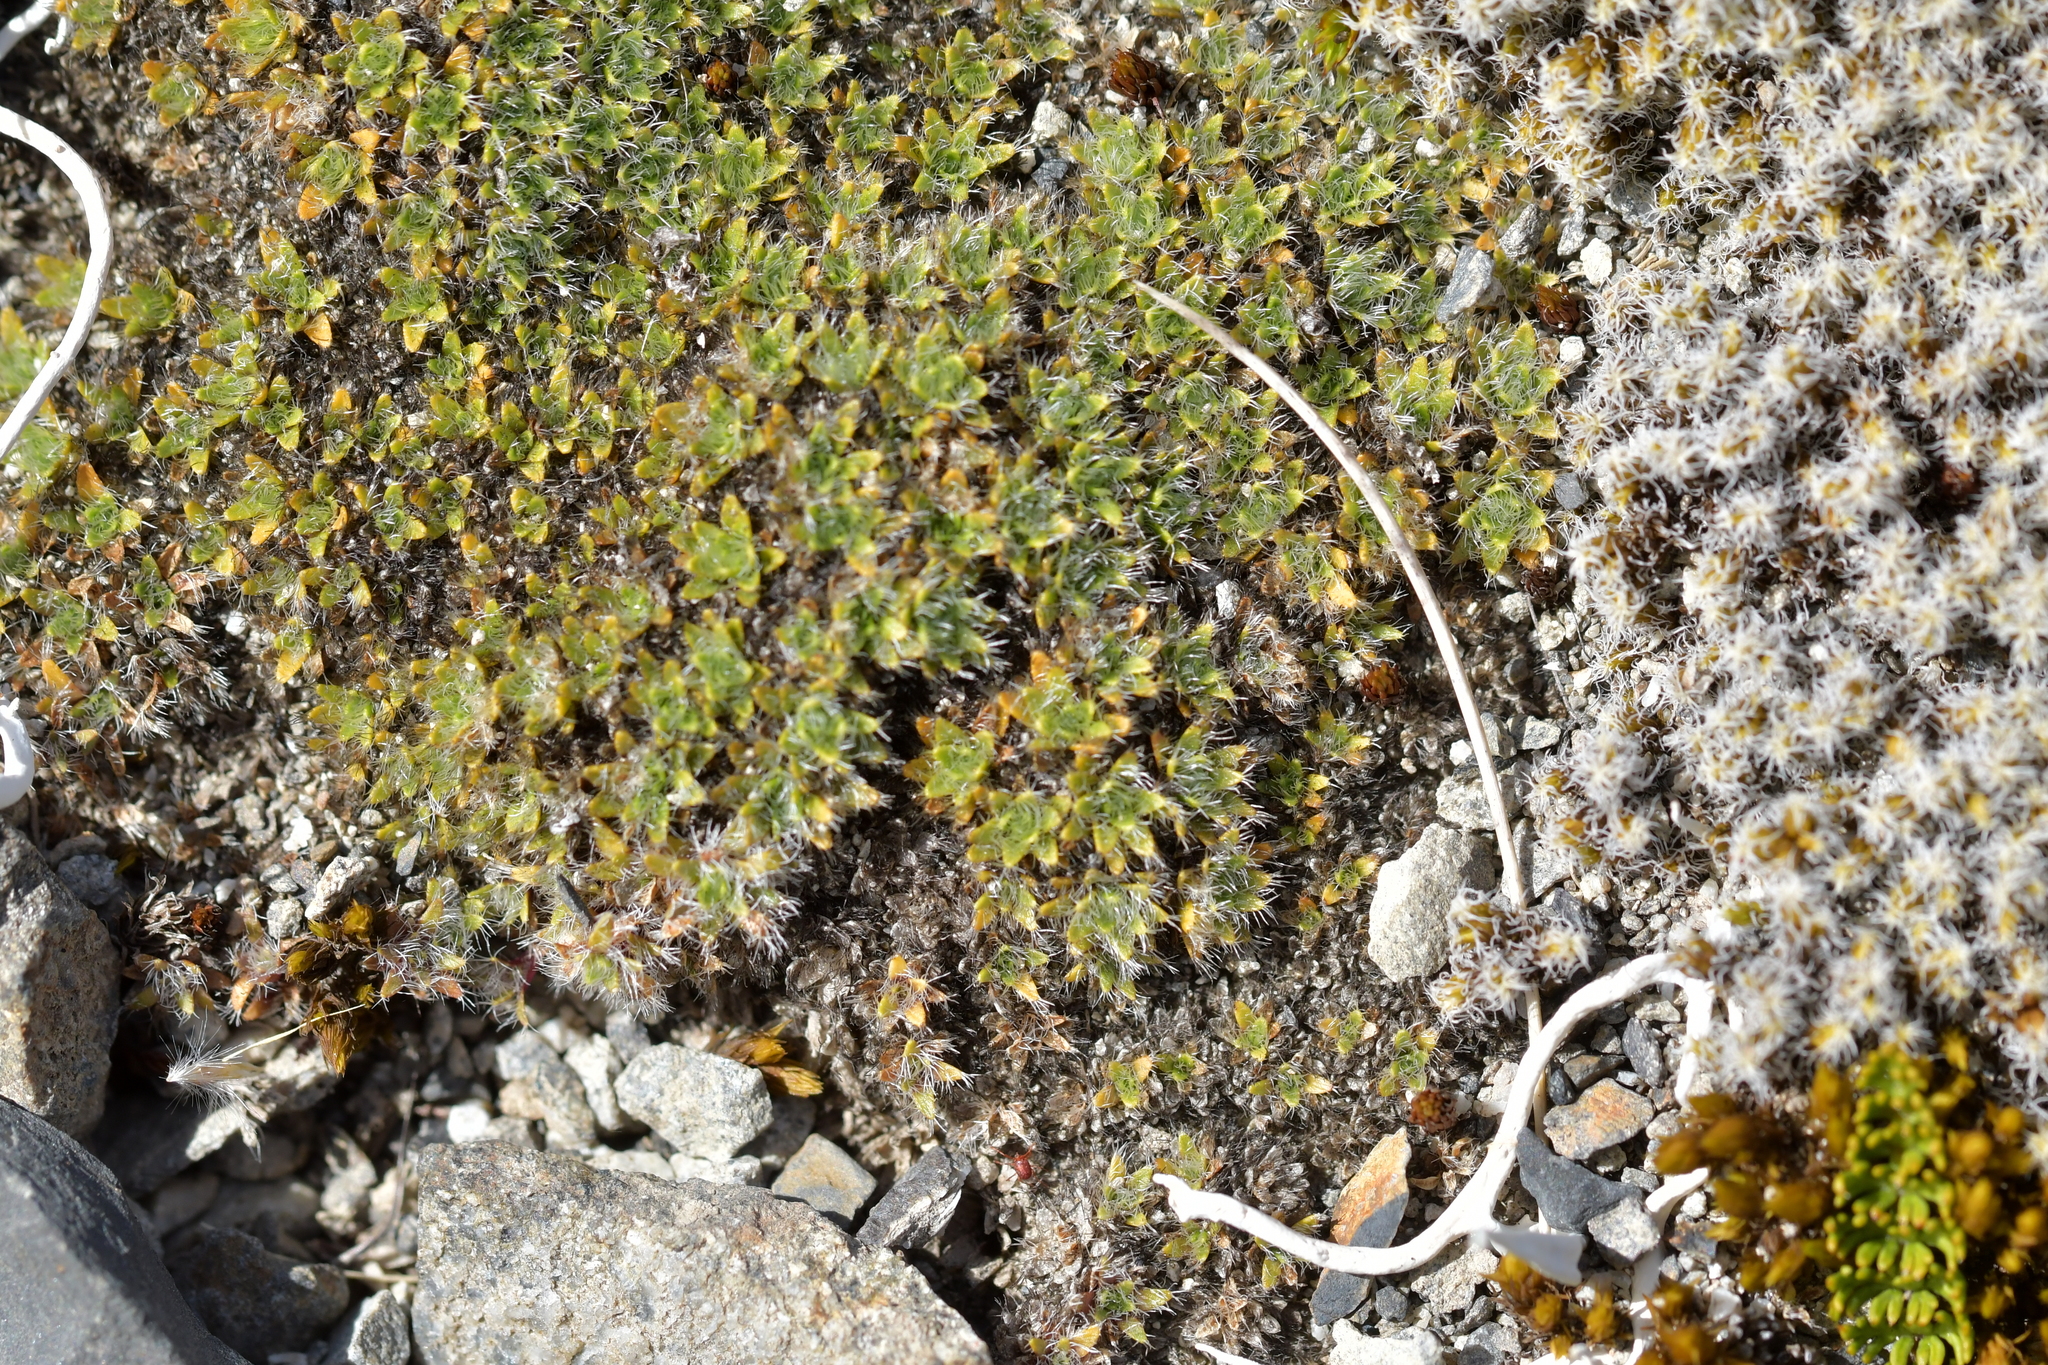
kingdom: Plantae
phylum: Tracheophyta
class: Magnoliopsida
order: Lamiales
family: Plantaginaceae
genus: Veronica
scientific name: Veronica pulvinaris
